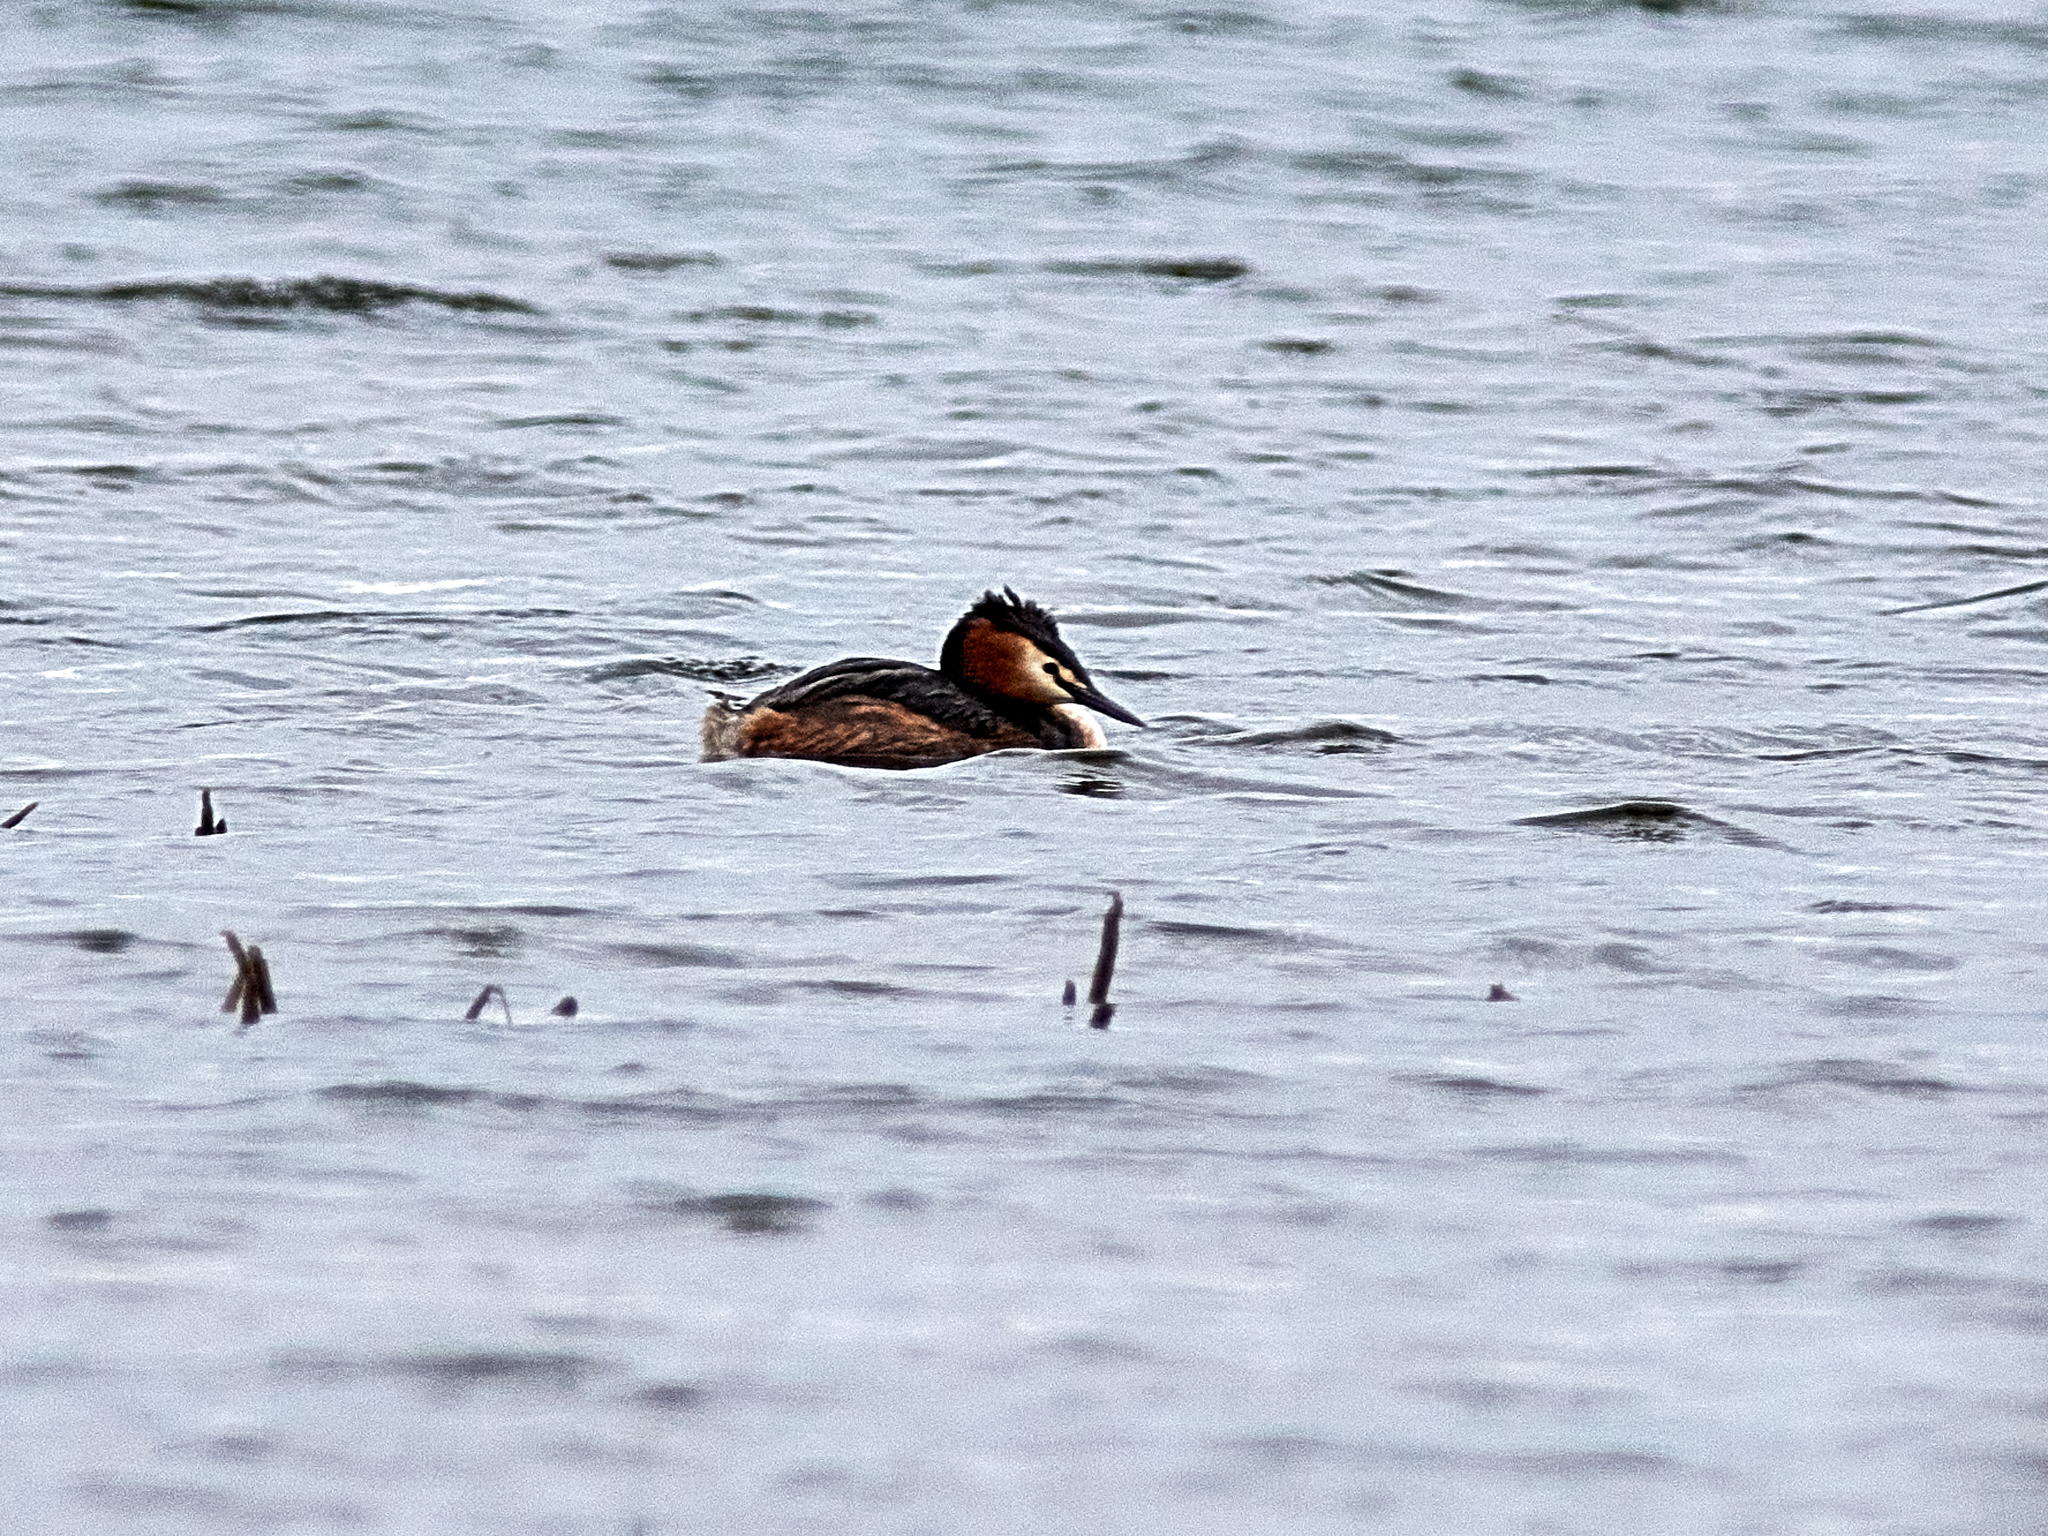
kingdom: Animalia
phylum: Chordata
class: Aves
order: Podicipediformes
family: Podicipedidae
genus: Podiceps
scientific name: Podiceps cristatus
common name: Great crested grebe
